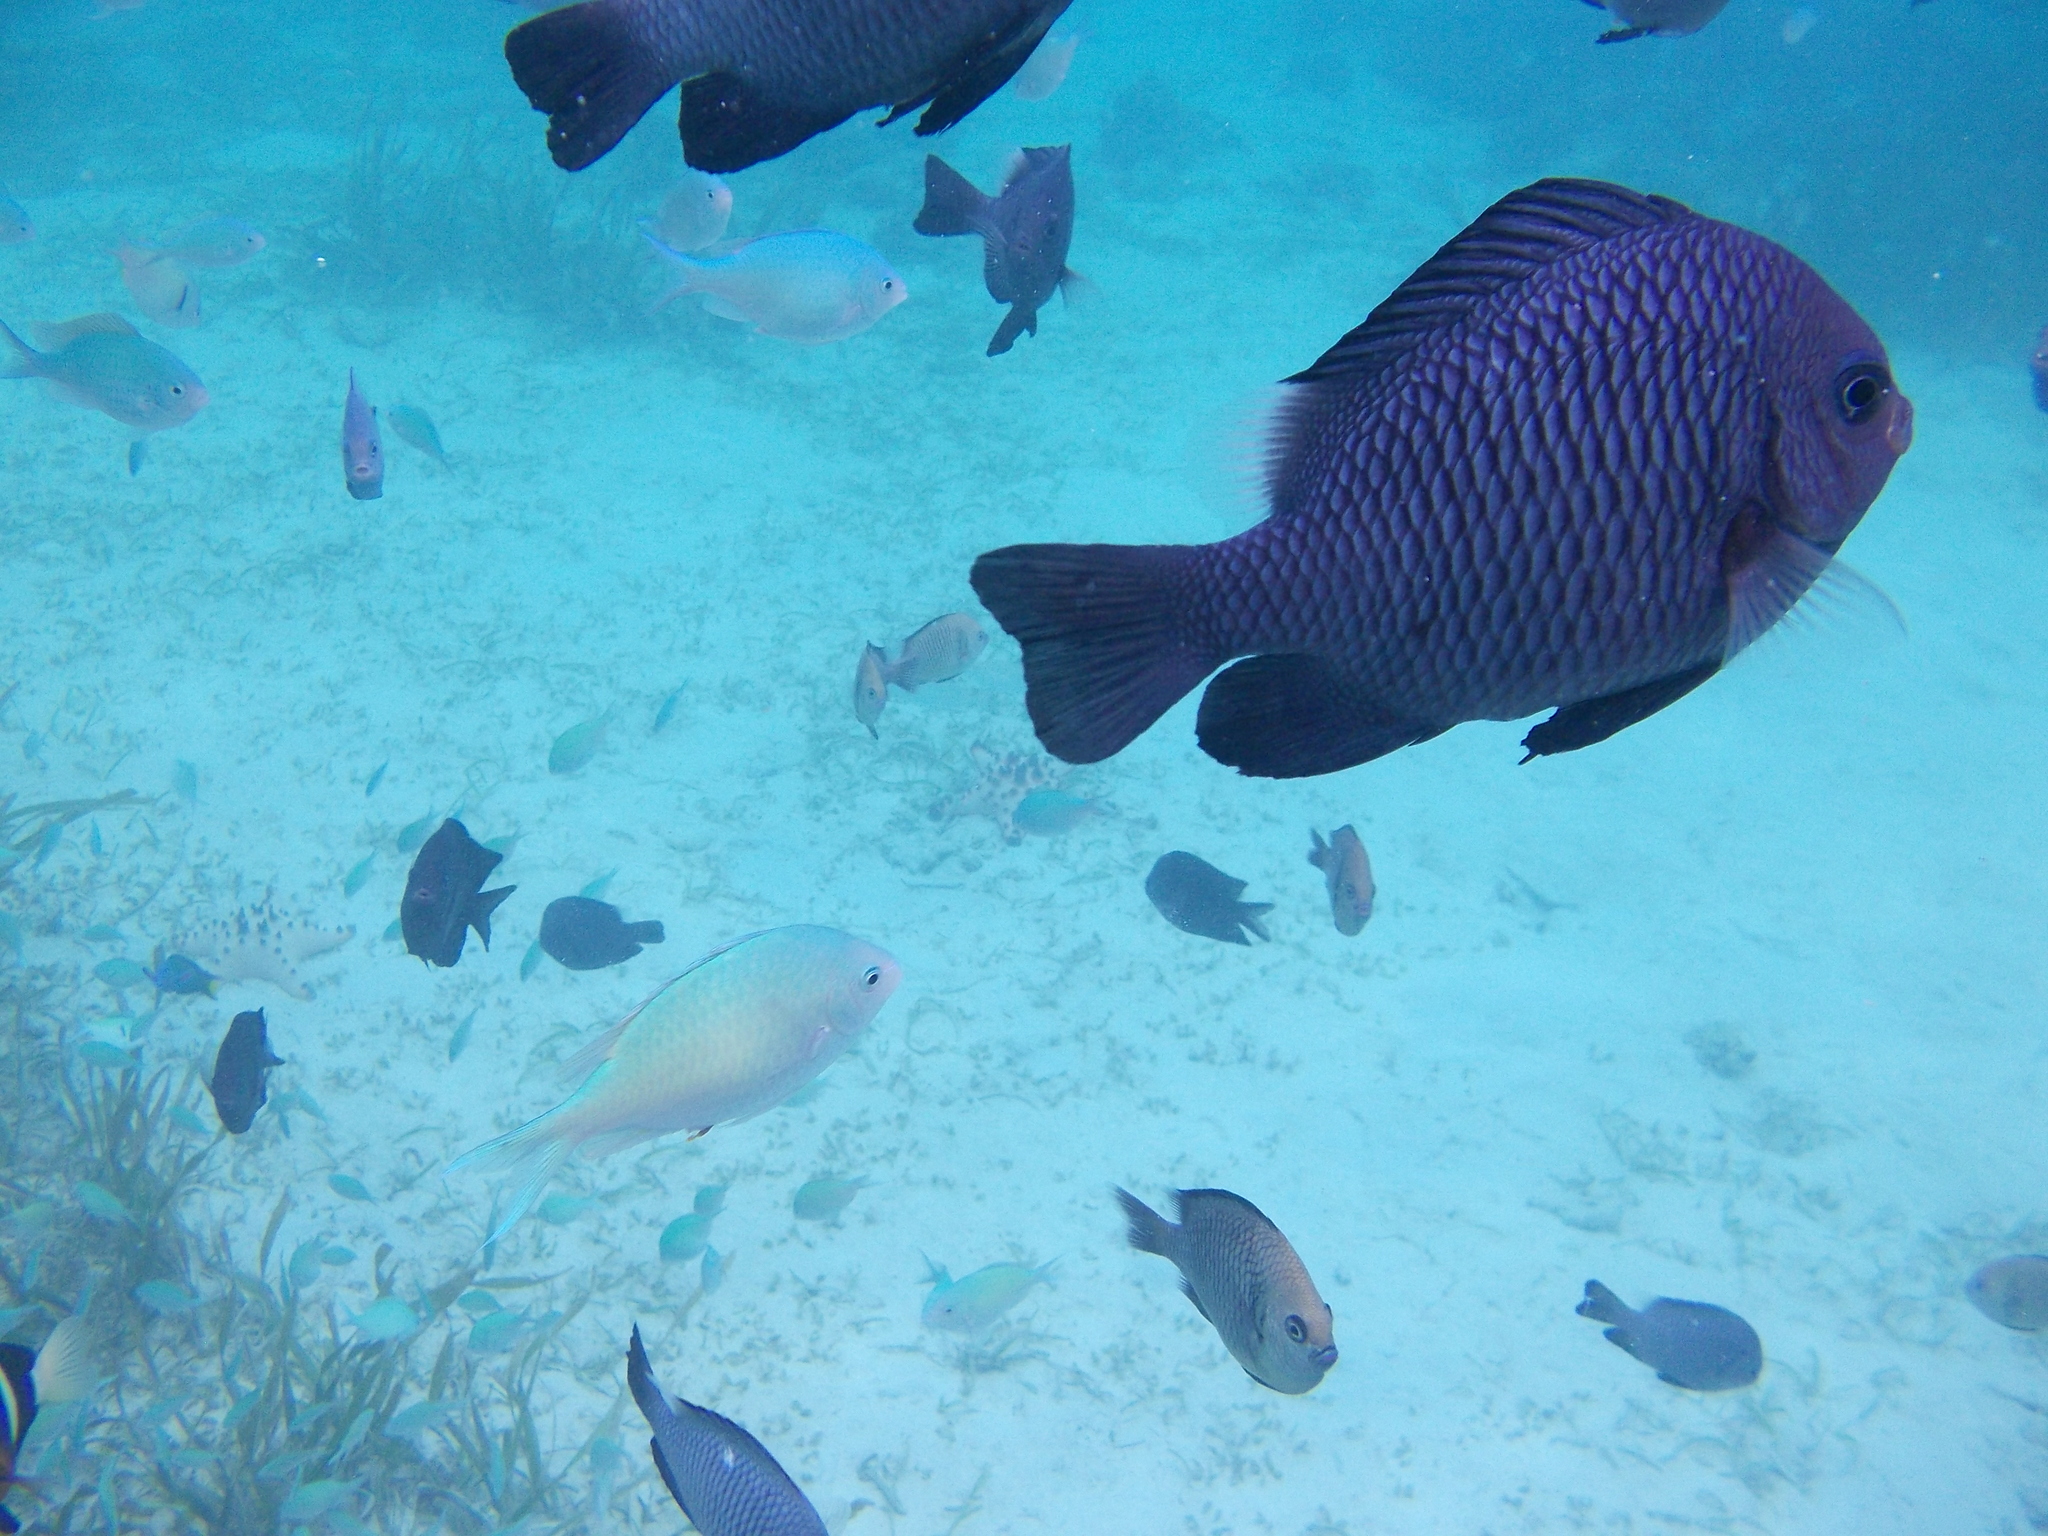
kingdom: Animalia
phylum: Chordata
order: Perciformes
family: Pomacentridae
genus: Dascyllus
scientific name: Dascyllus trimaculatus
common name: Threespot dascyllus
